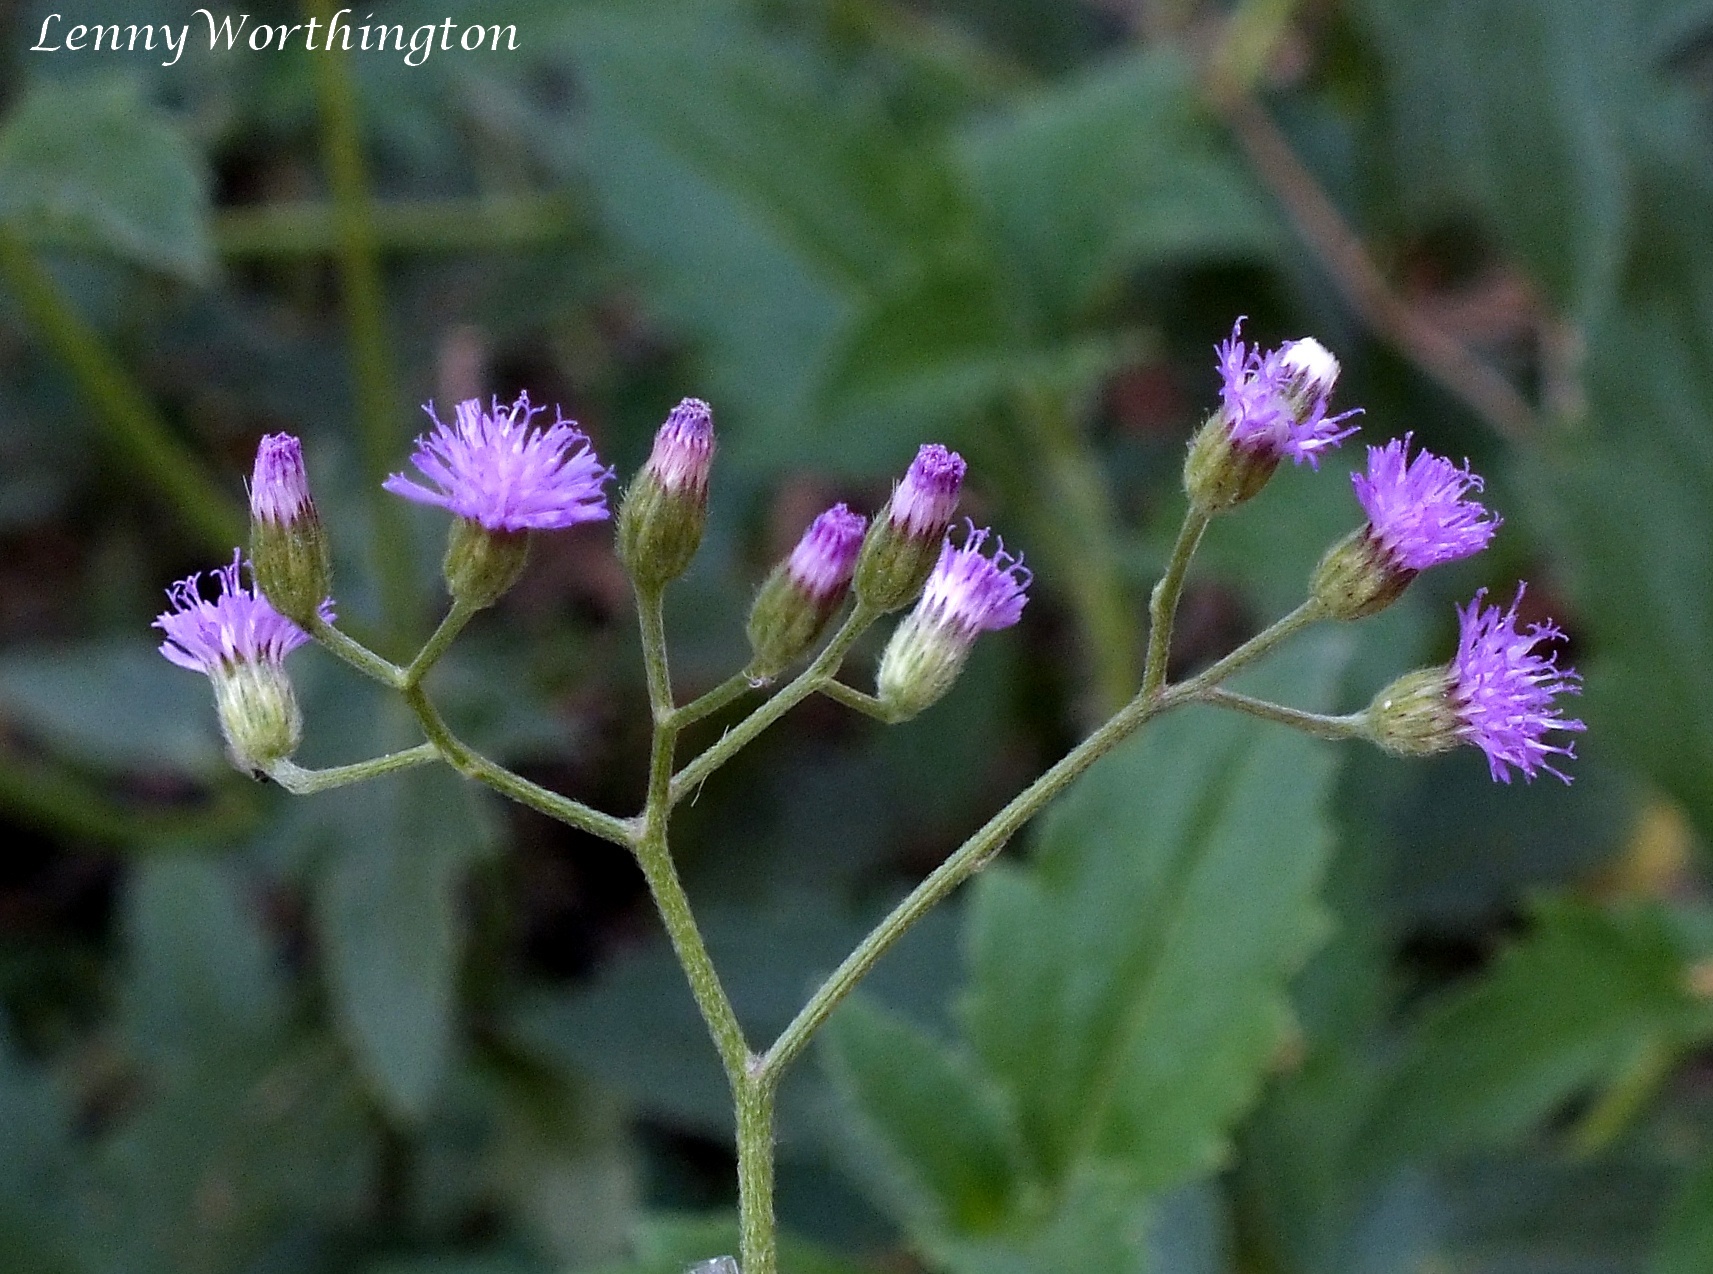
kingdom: Plantae
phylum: Tracheophyta
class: Magnoliopsida
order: Asterales
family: Asteraceae
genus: Cyanthillium
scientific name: Cyanthillium cinereum
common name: Little ironweed
